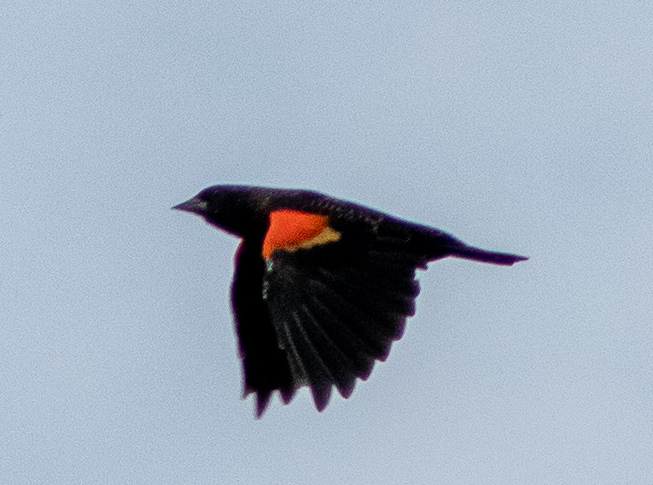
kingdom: Animalia
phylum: Chordata
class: Aves
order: Passeriformes
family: Icteridae
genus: Agelaius
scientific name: Agelaius phoeniceus
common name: Red-winged blackbird
